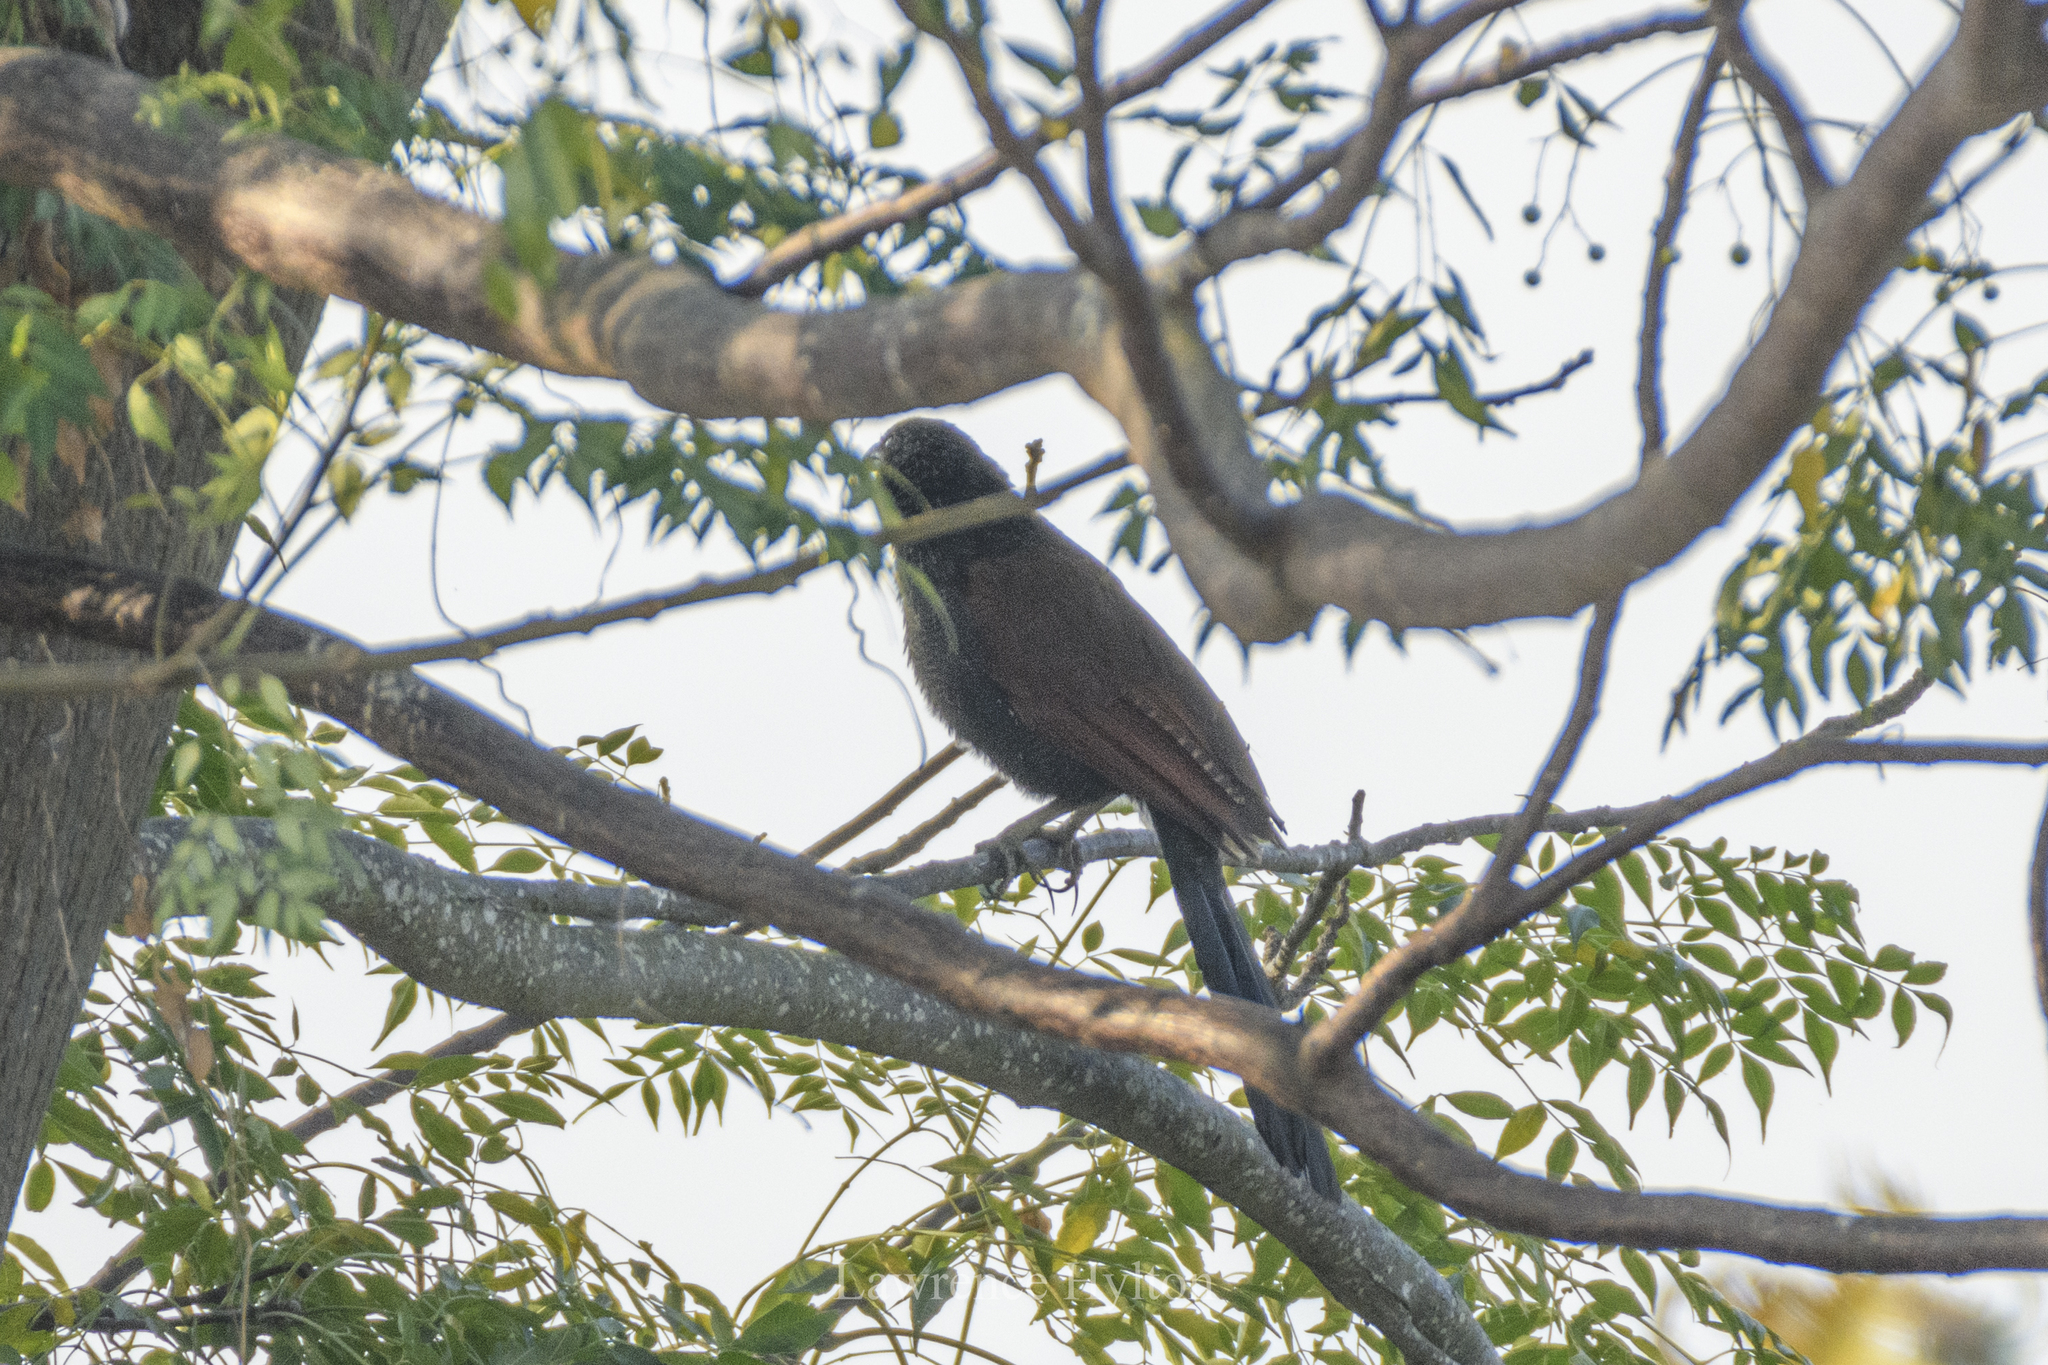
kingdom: Animalia
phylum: Chordata
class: Aves
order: Cuculiformes
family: Cuculidae
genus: Centropus
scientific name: Centropus sinensis
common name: Greater coucal
